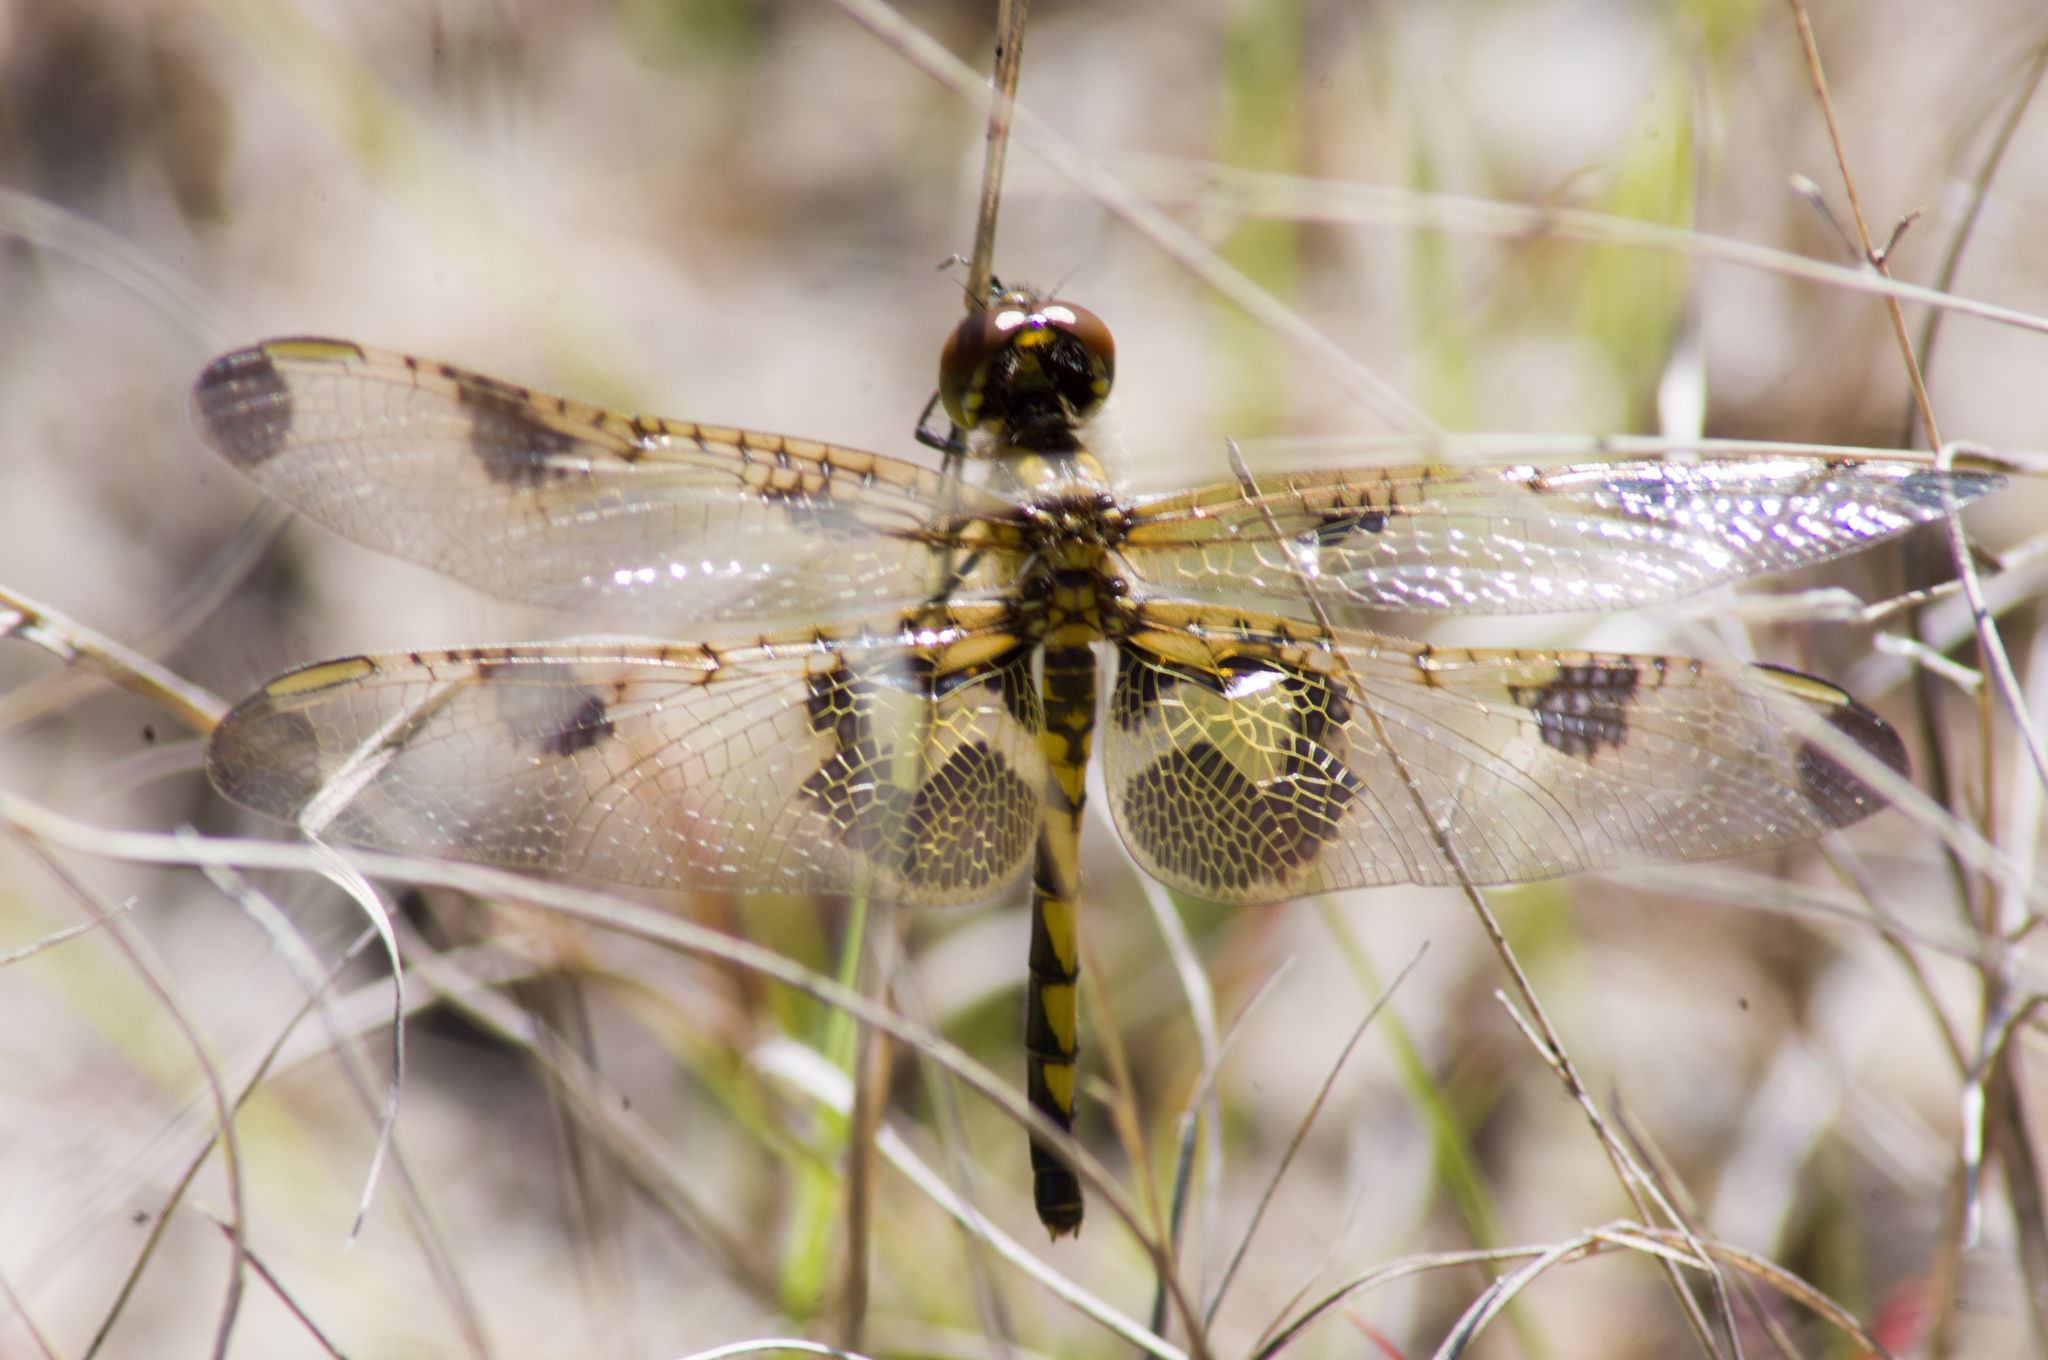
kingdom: Animalia
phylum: Arthropoda
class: Insecta
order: Odonata
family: Libellulidae
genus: Celithemis
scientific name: Celithemis elisa
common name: Calico pennant
